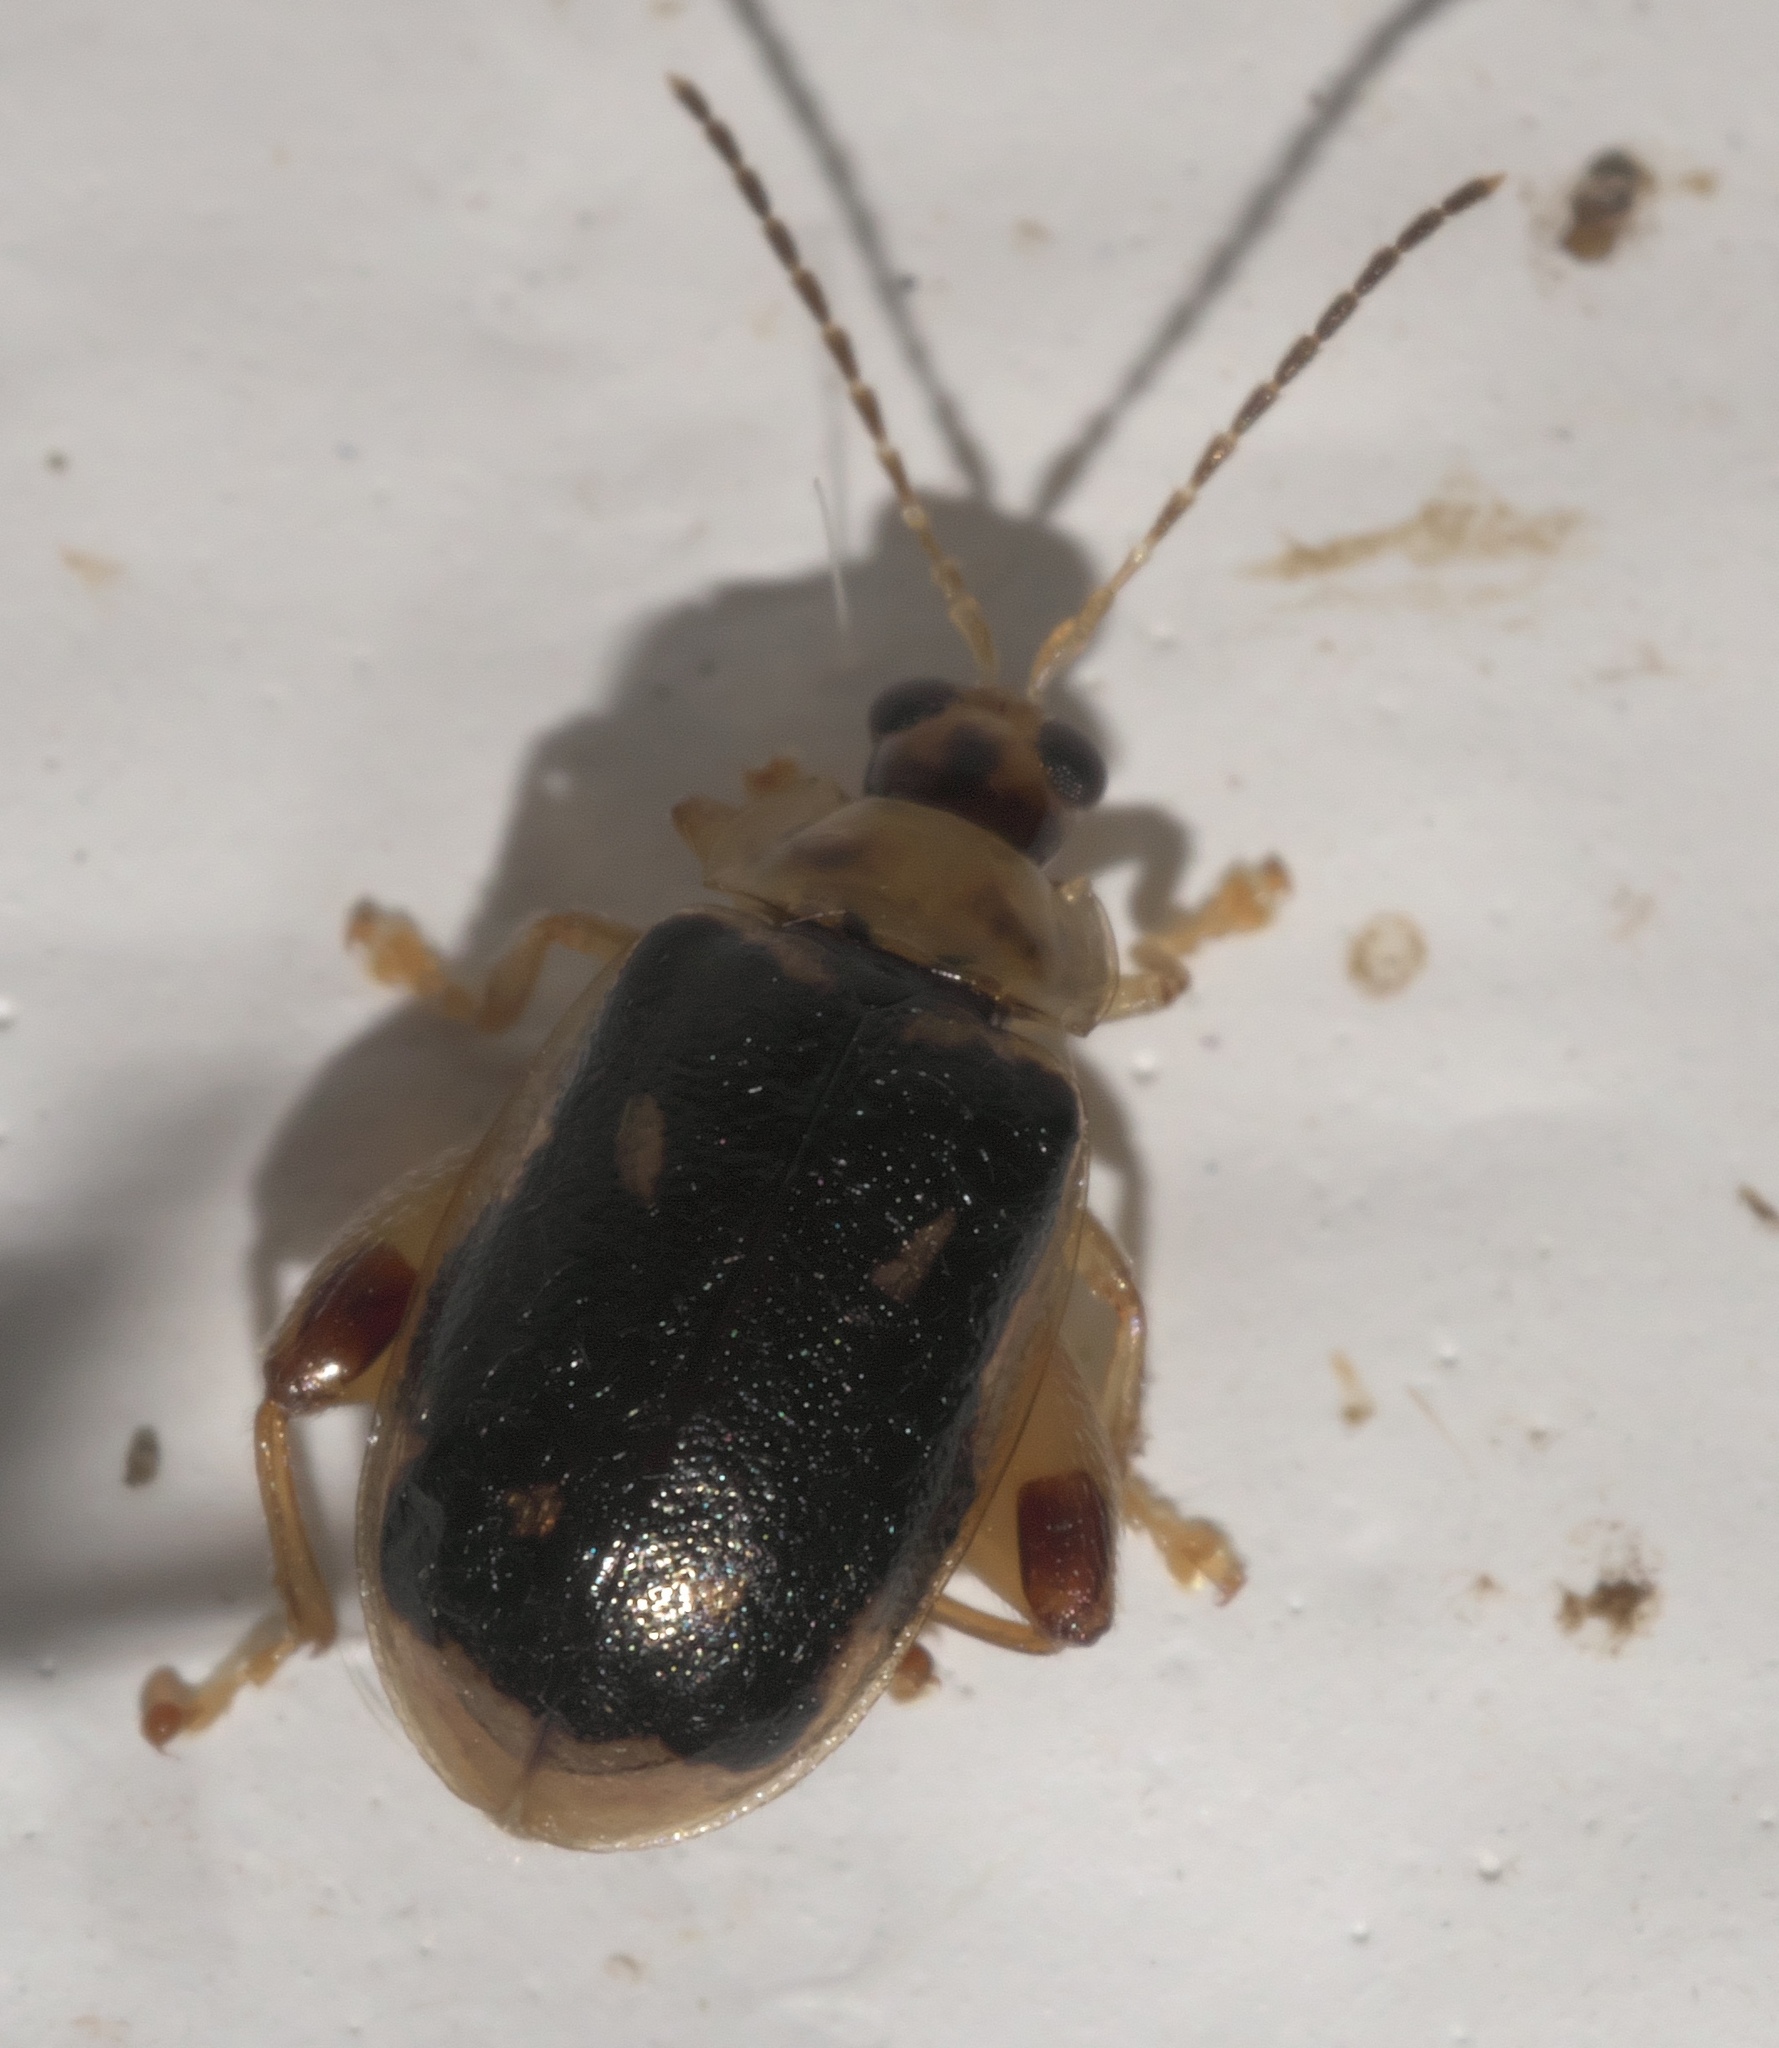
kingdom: Animalia
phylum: Arthropoda
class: Insecta
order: Coleoptera
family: Chrysomelidae
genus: Capraita
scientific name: Capraita scalaris
